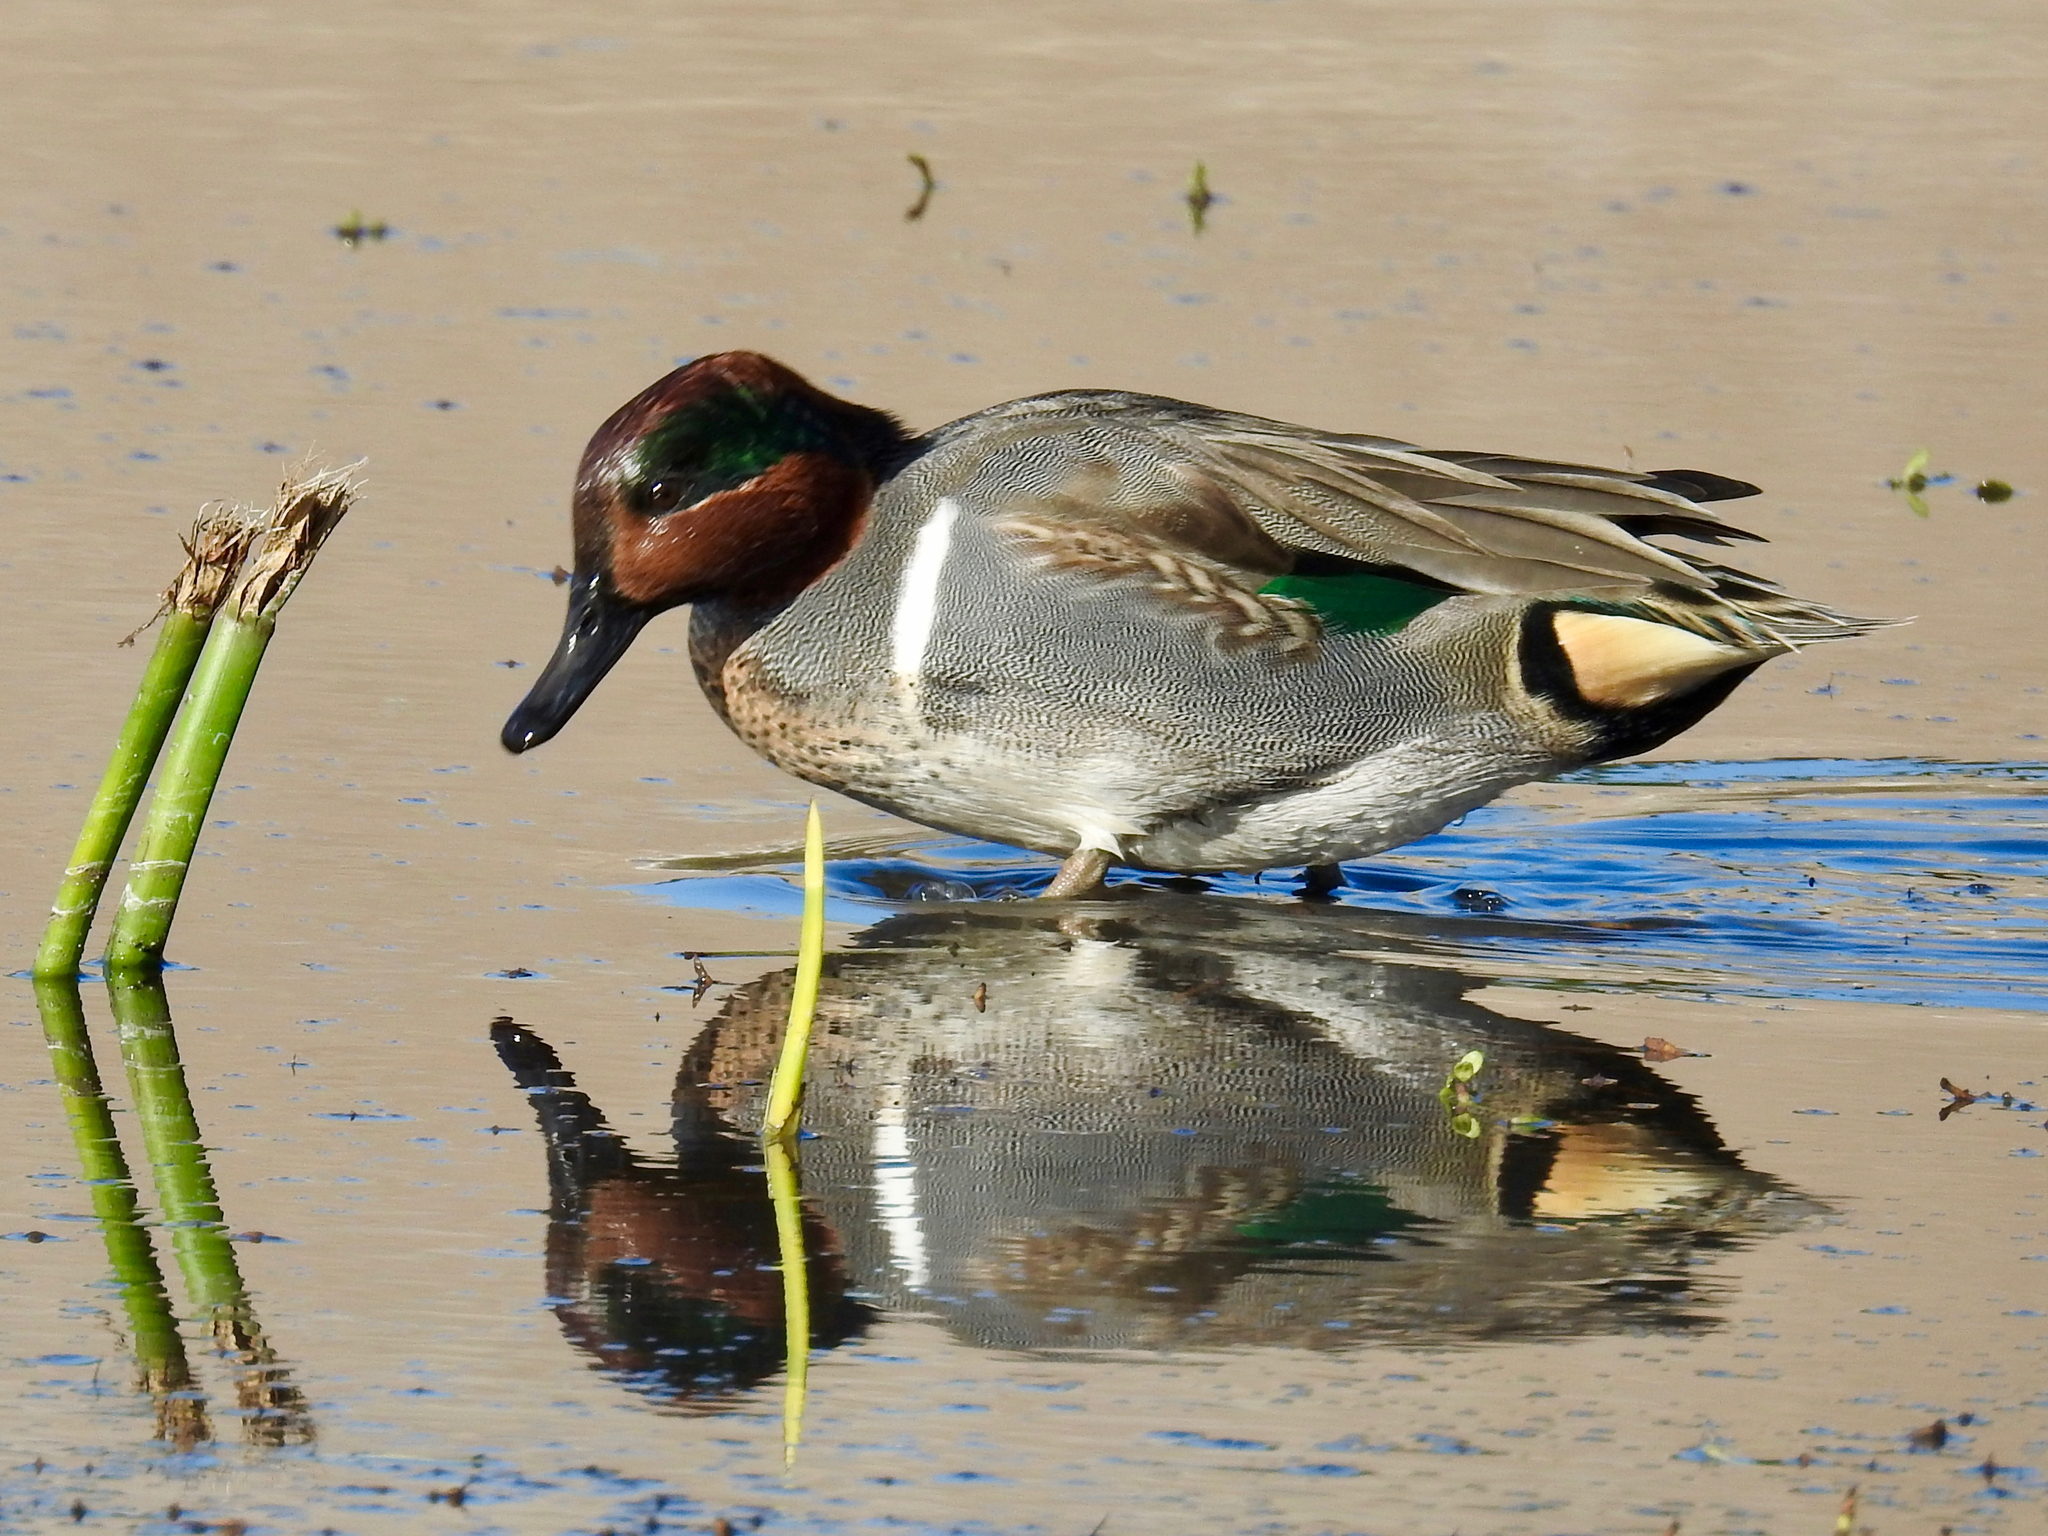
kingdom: Animalia
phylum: Chordata
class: Aves
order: Anseriformes
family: Anatidae
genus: Anas
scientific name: Anas crecca
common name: Eurasian teal
